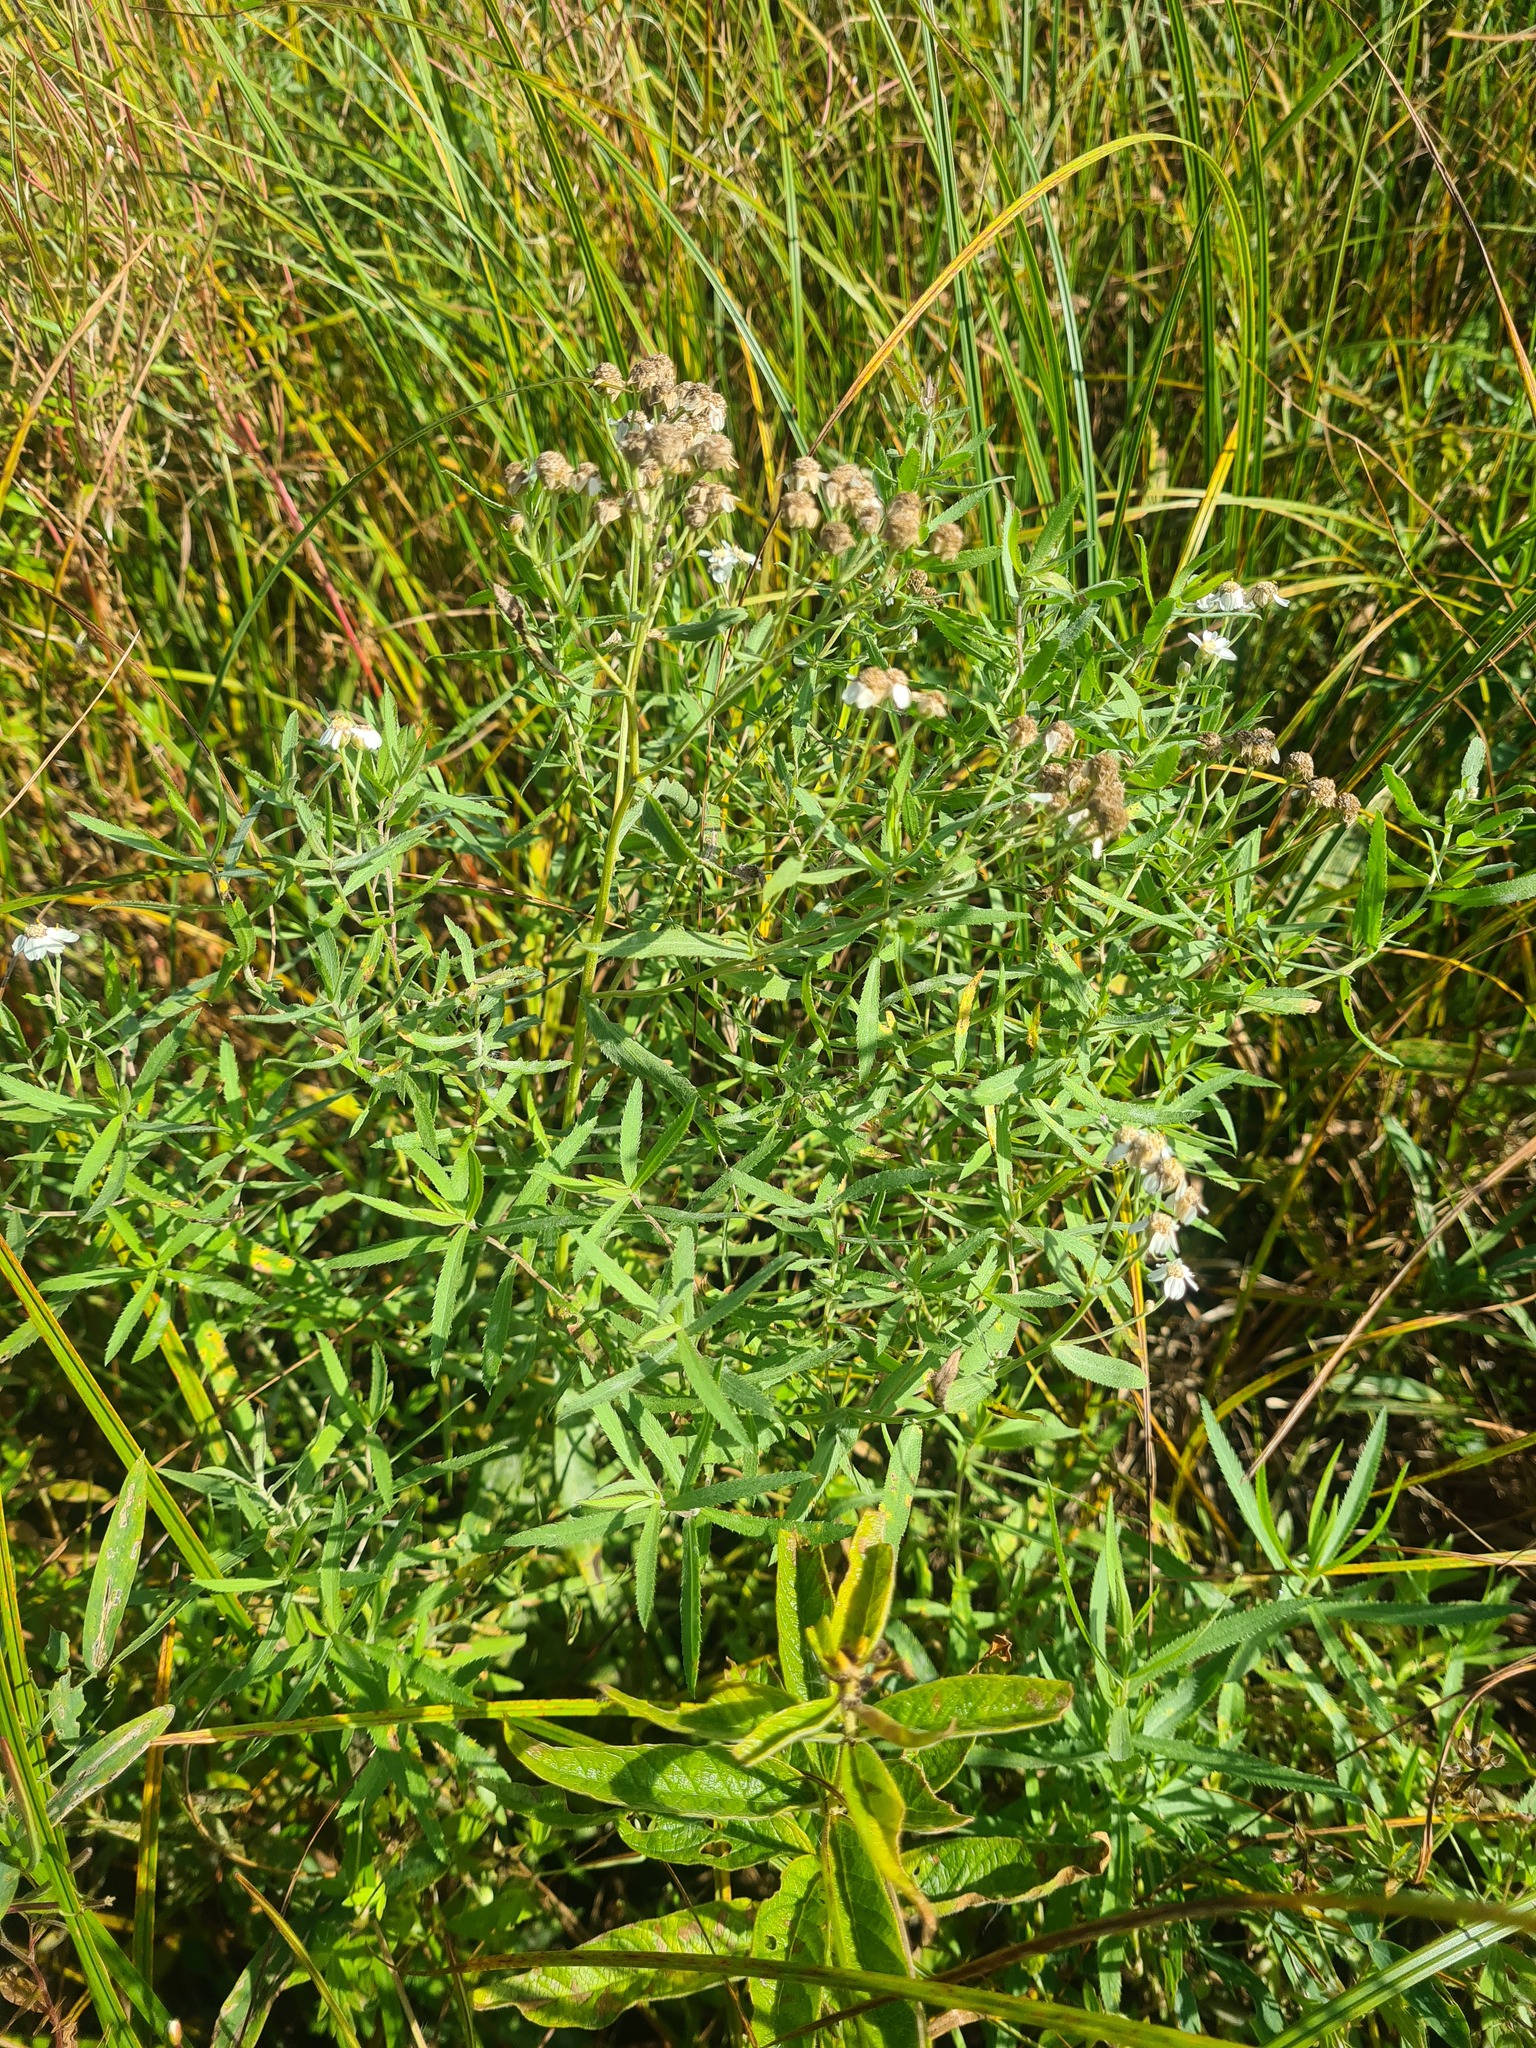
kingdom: Plantae
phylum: Tracheophyta
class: Magnoliopsida
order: Asterales
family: Asteraceae
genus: Achillea
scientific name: Achillea salicifolia
